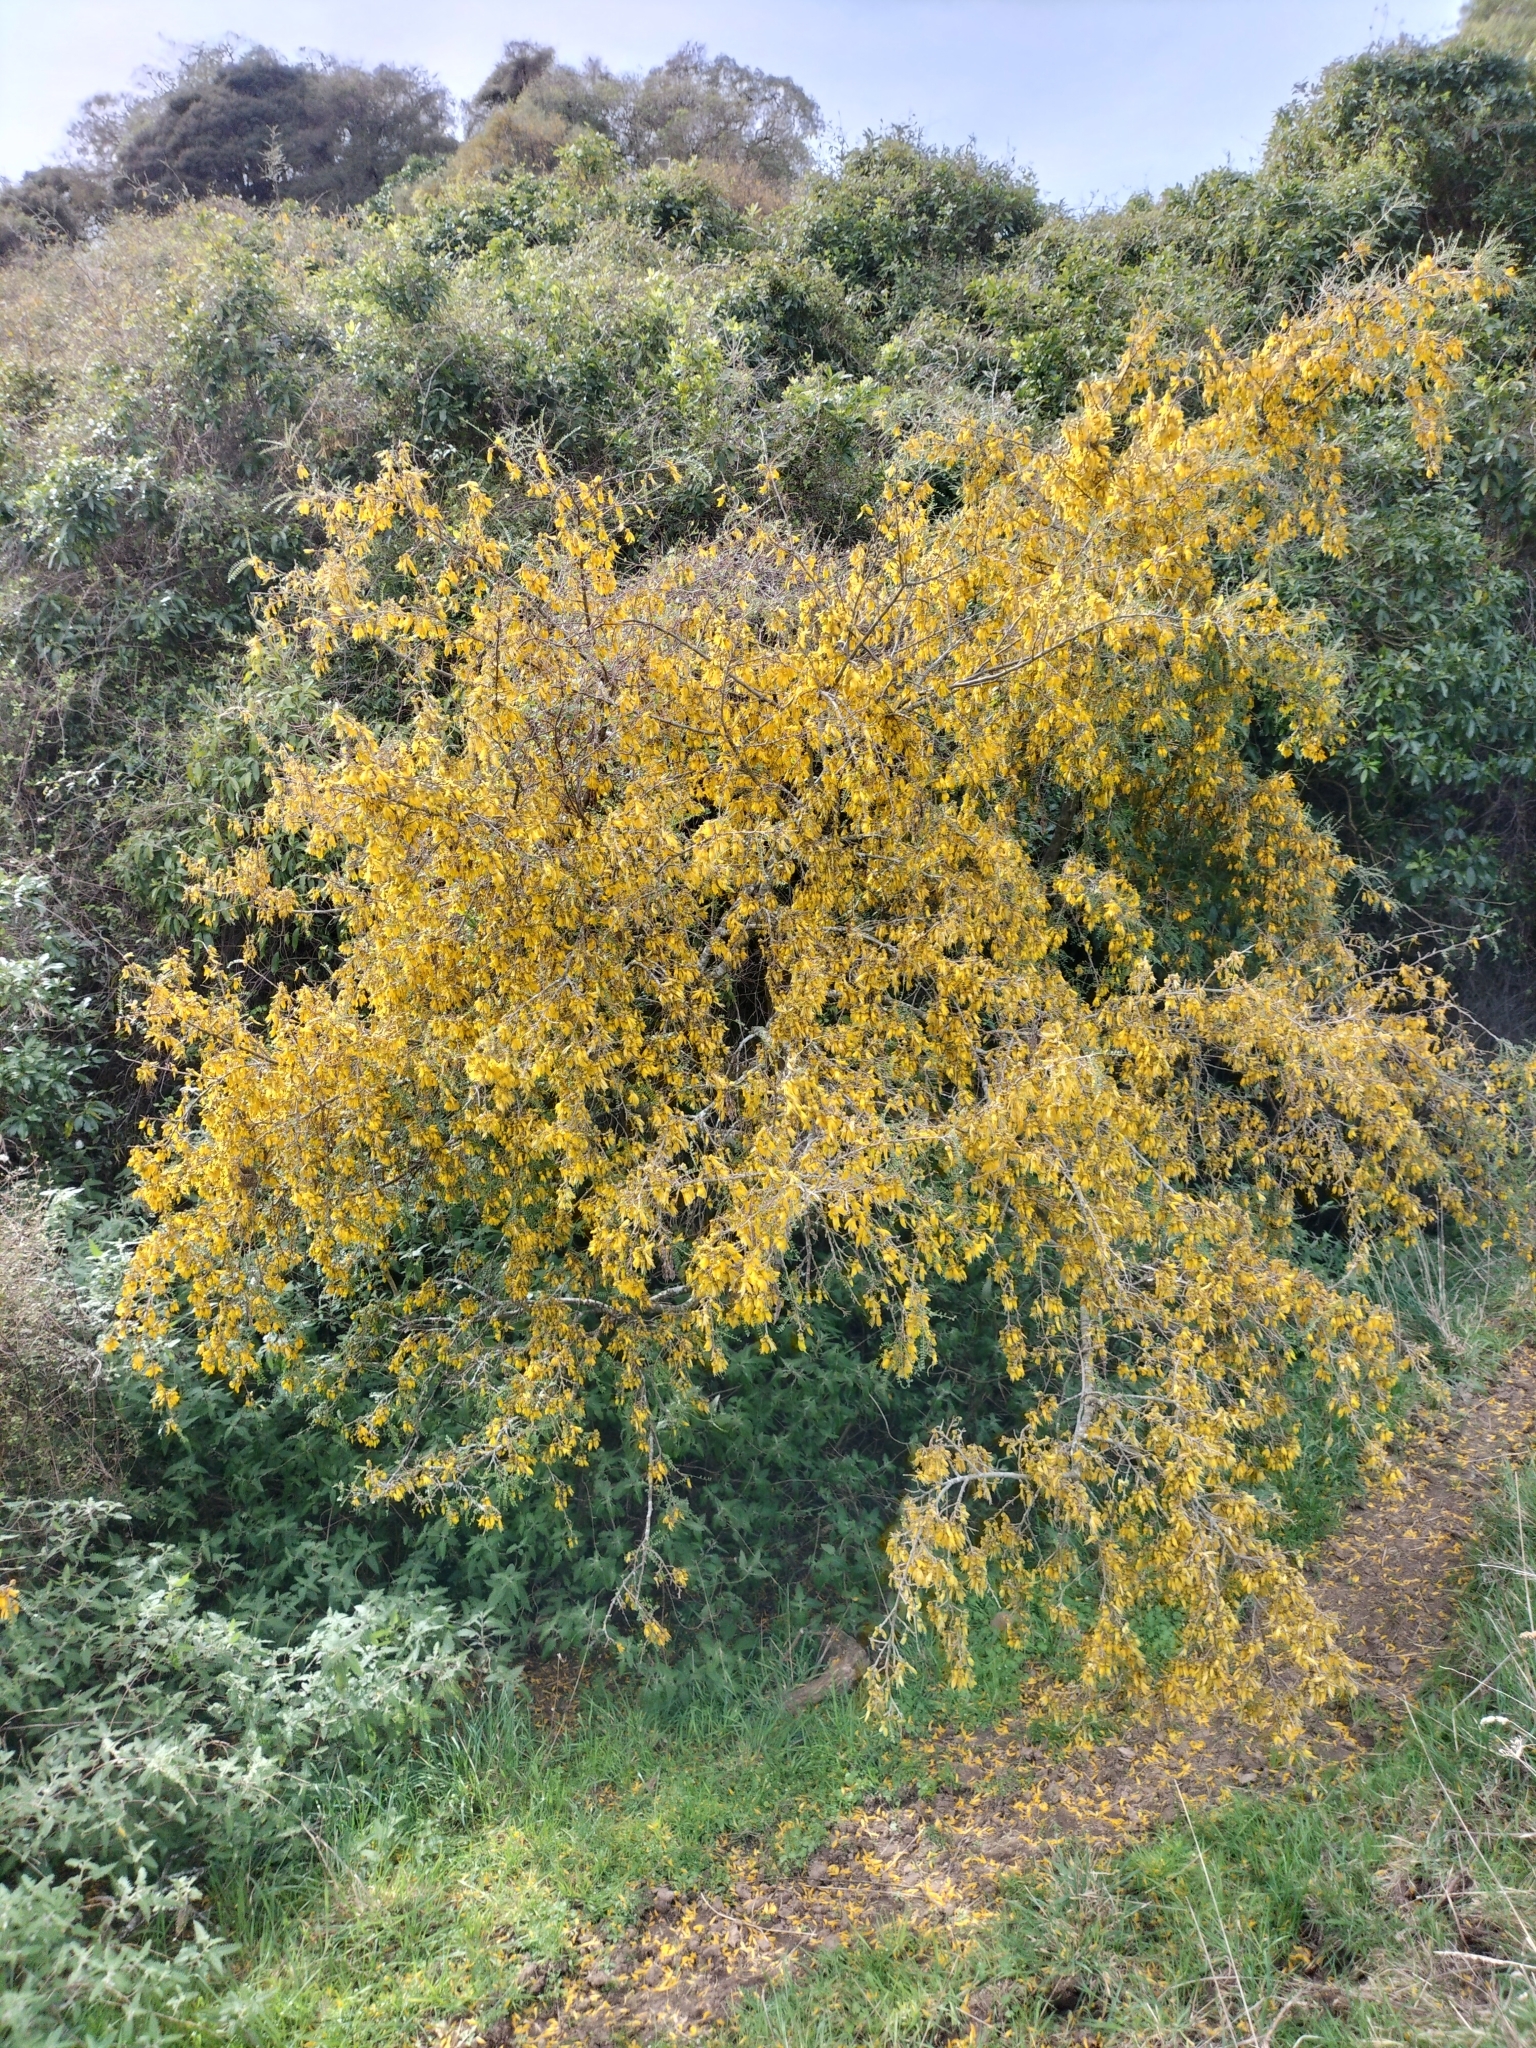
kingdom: Plantae
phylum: Tracheophyta
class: Magnoliopsida
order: Fabales
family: Fabaceae
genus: Sophora
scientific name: Sophora microphylla
